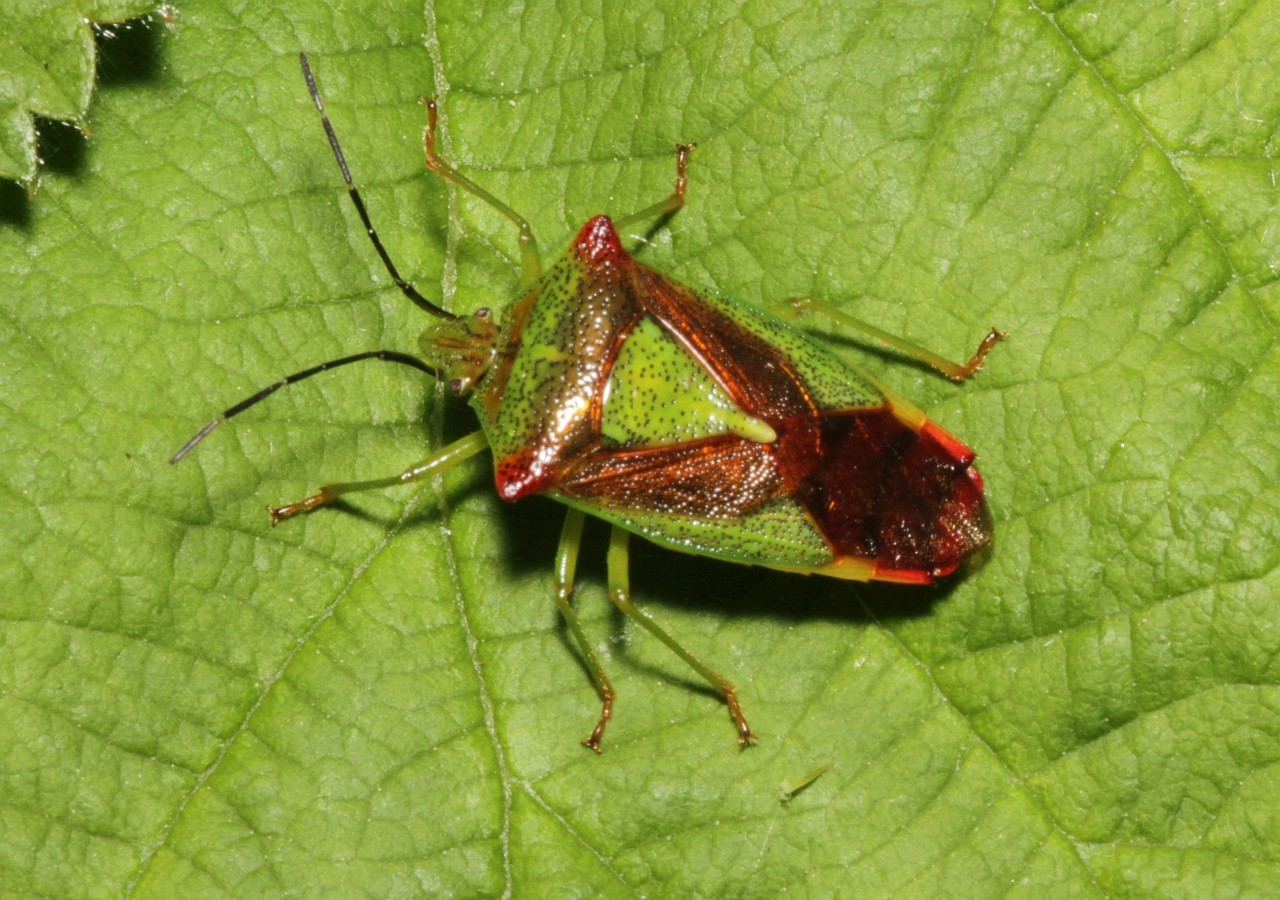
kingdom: Animalia
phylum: Arthropoda
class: Insecta
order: Hemiptera
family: Acanthosomatidae
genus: Acanthosoma
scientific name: Acanthosoma haemorrhoidale
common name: Hawthorn shieldbug
